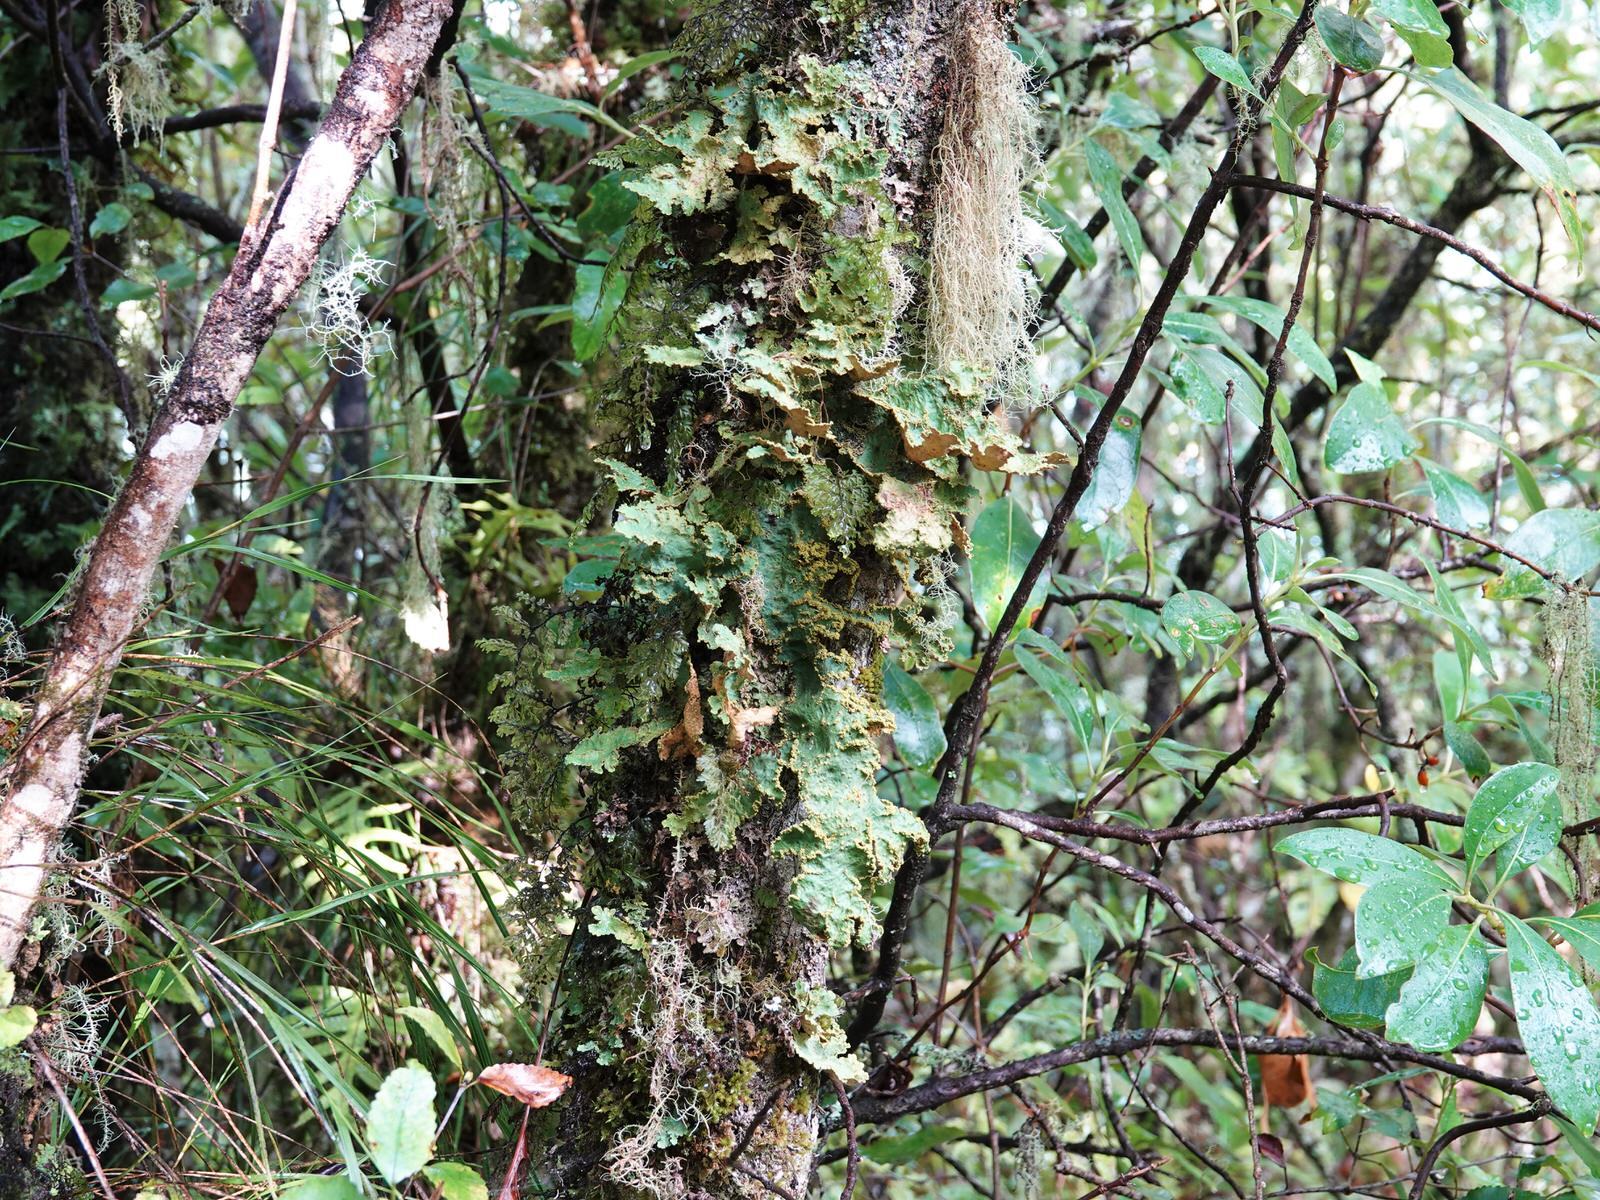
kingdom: Fungi
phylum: Ascomycota
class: Lecanoromycetes
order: Peltigerales
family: Lobariaceae
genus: Yarrumia
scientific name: Yarrumia colensoi
